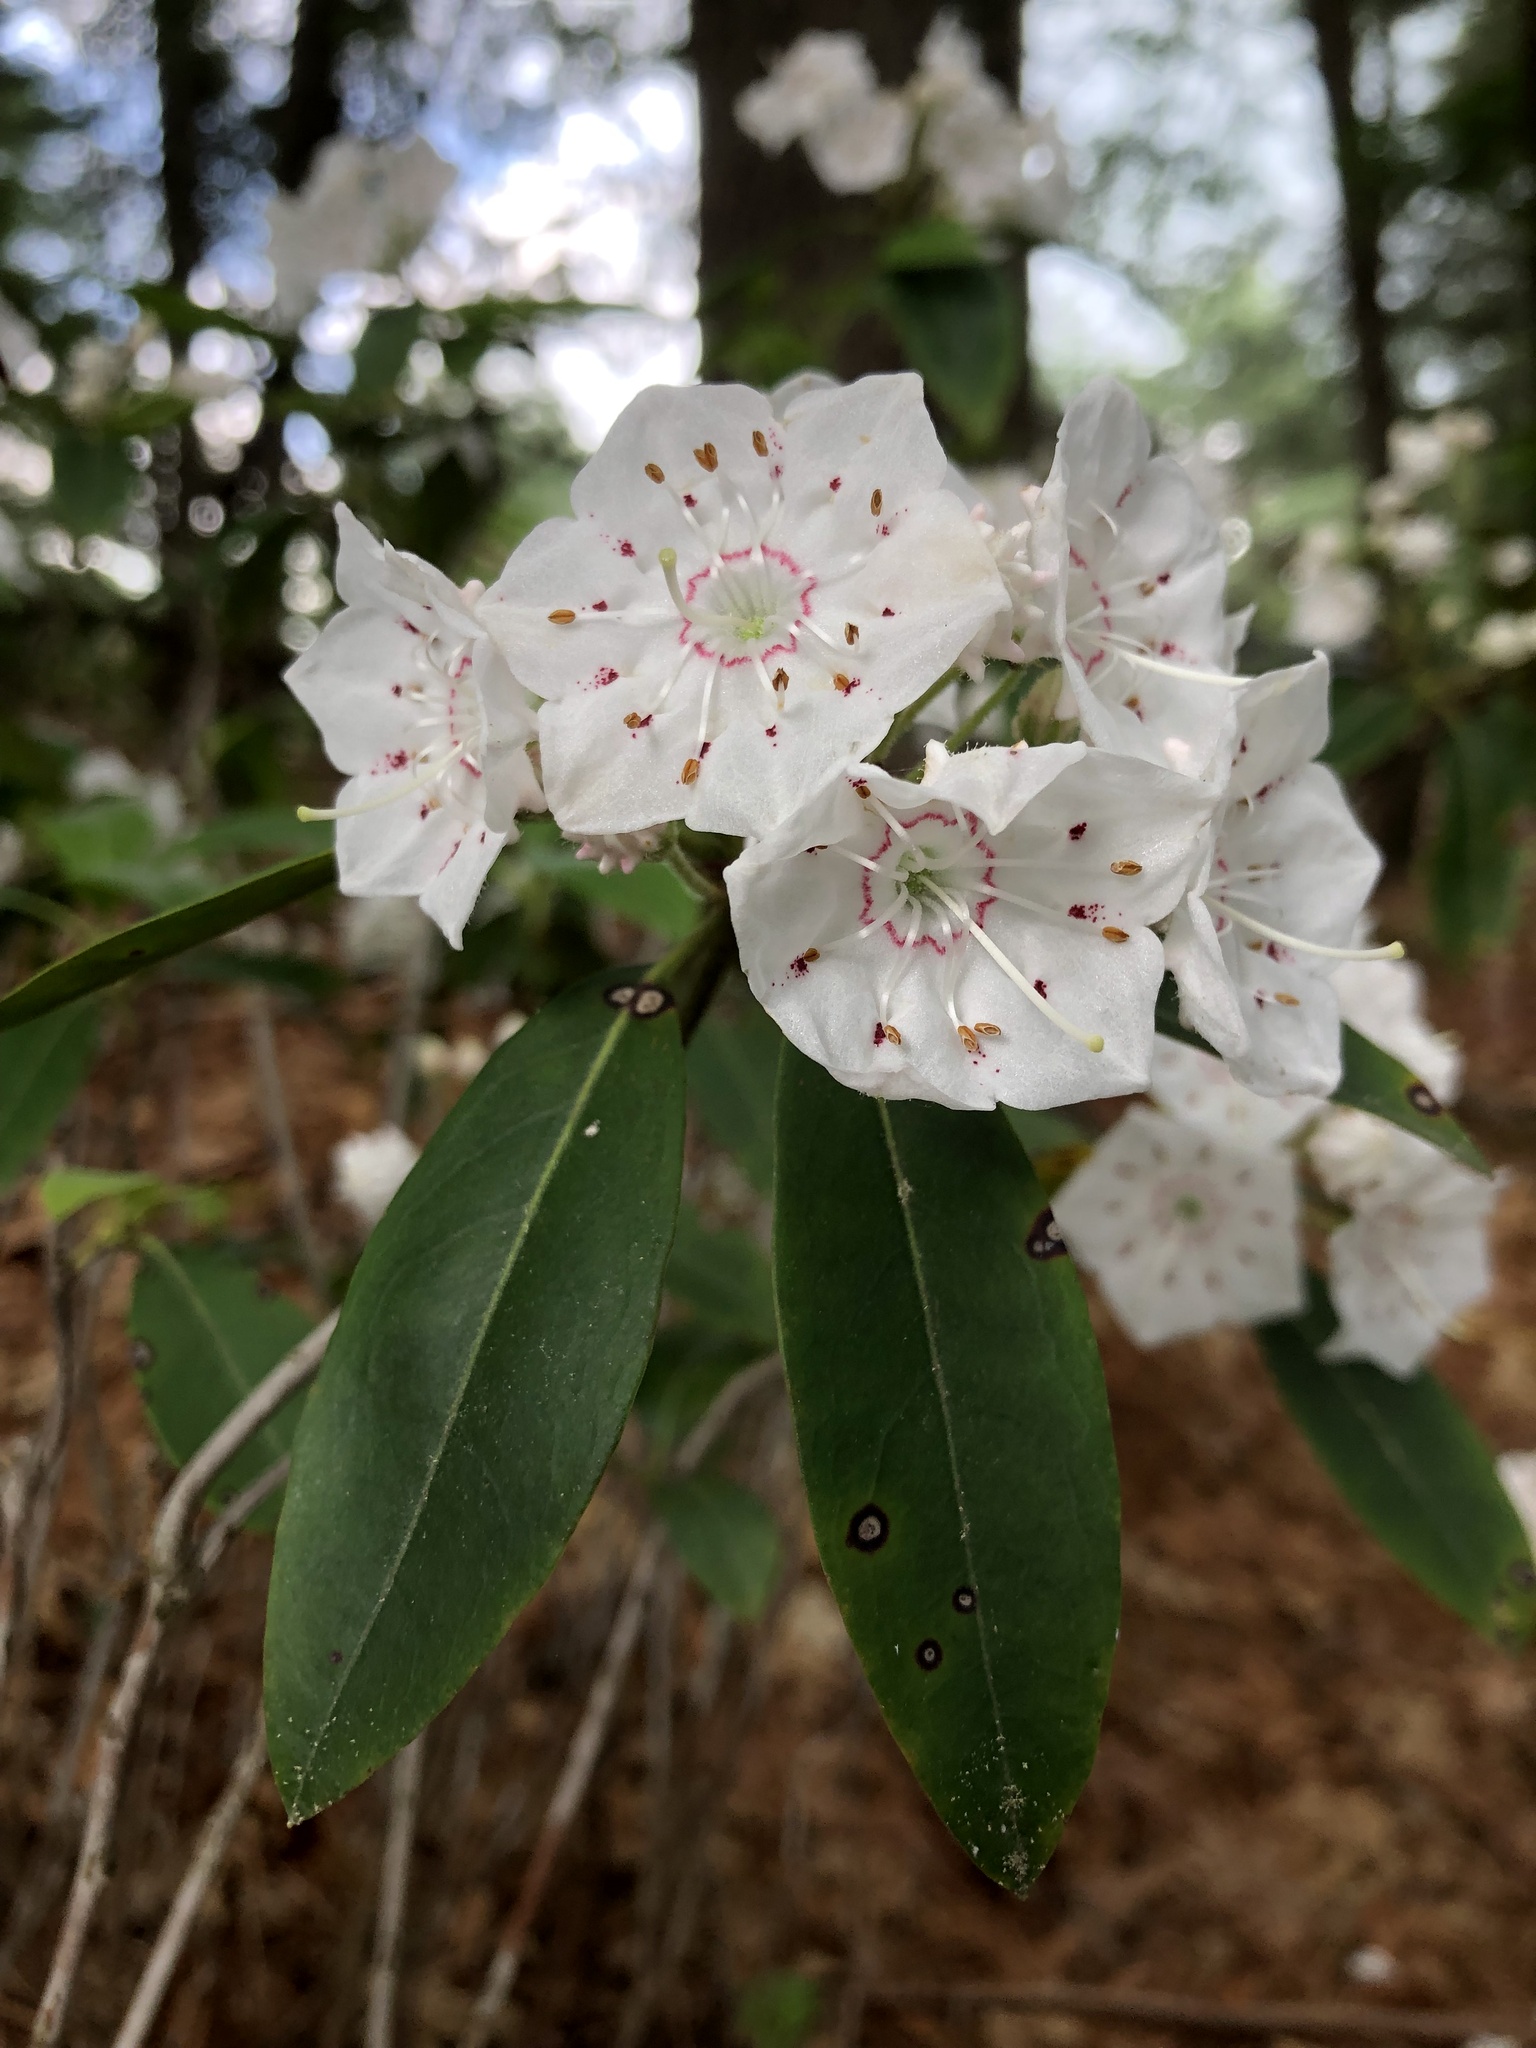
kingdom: Plantae
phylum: Tracheophyta
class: Magnoliopsida
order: Ericales
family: Ericaceae
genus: Kalmia
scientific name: Kalmia latifolia
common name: Mountain-laurel
